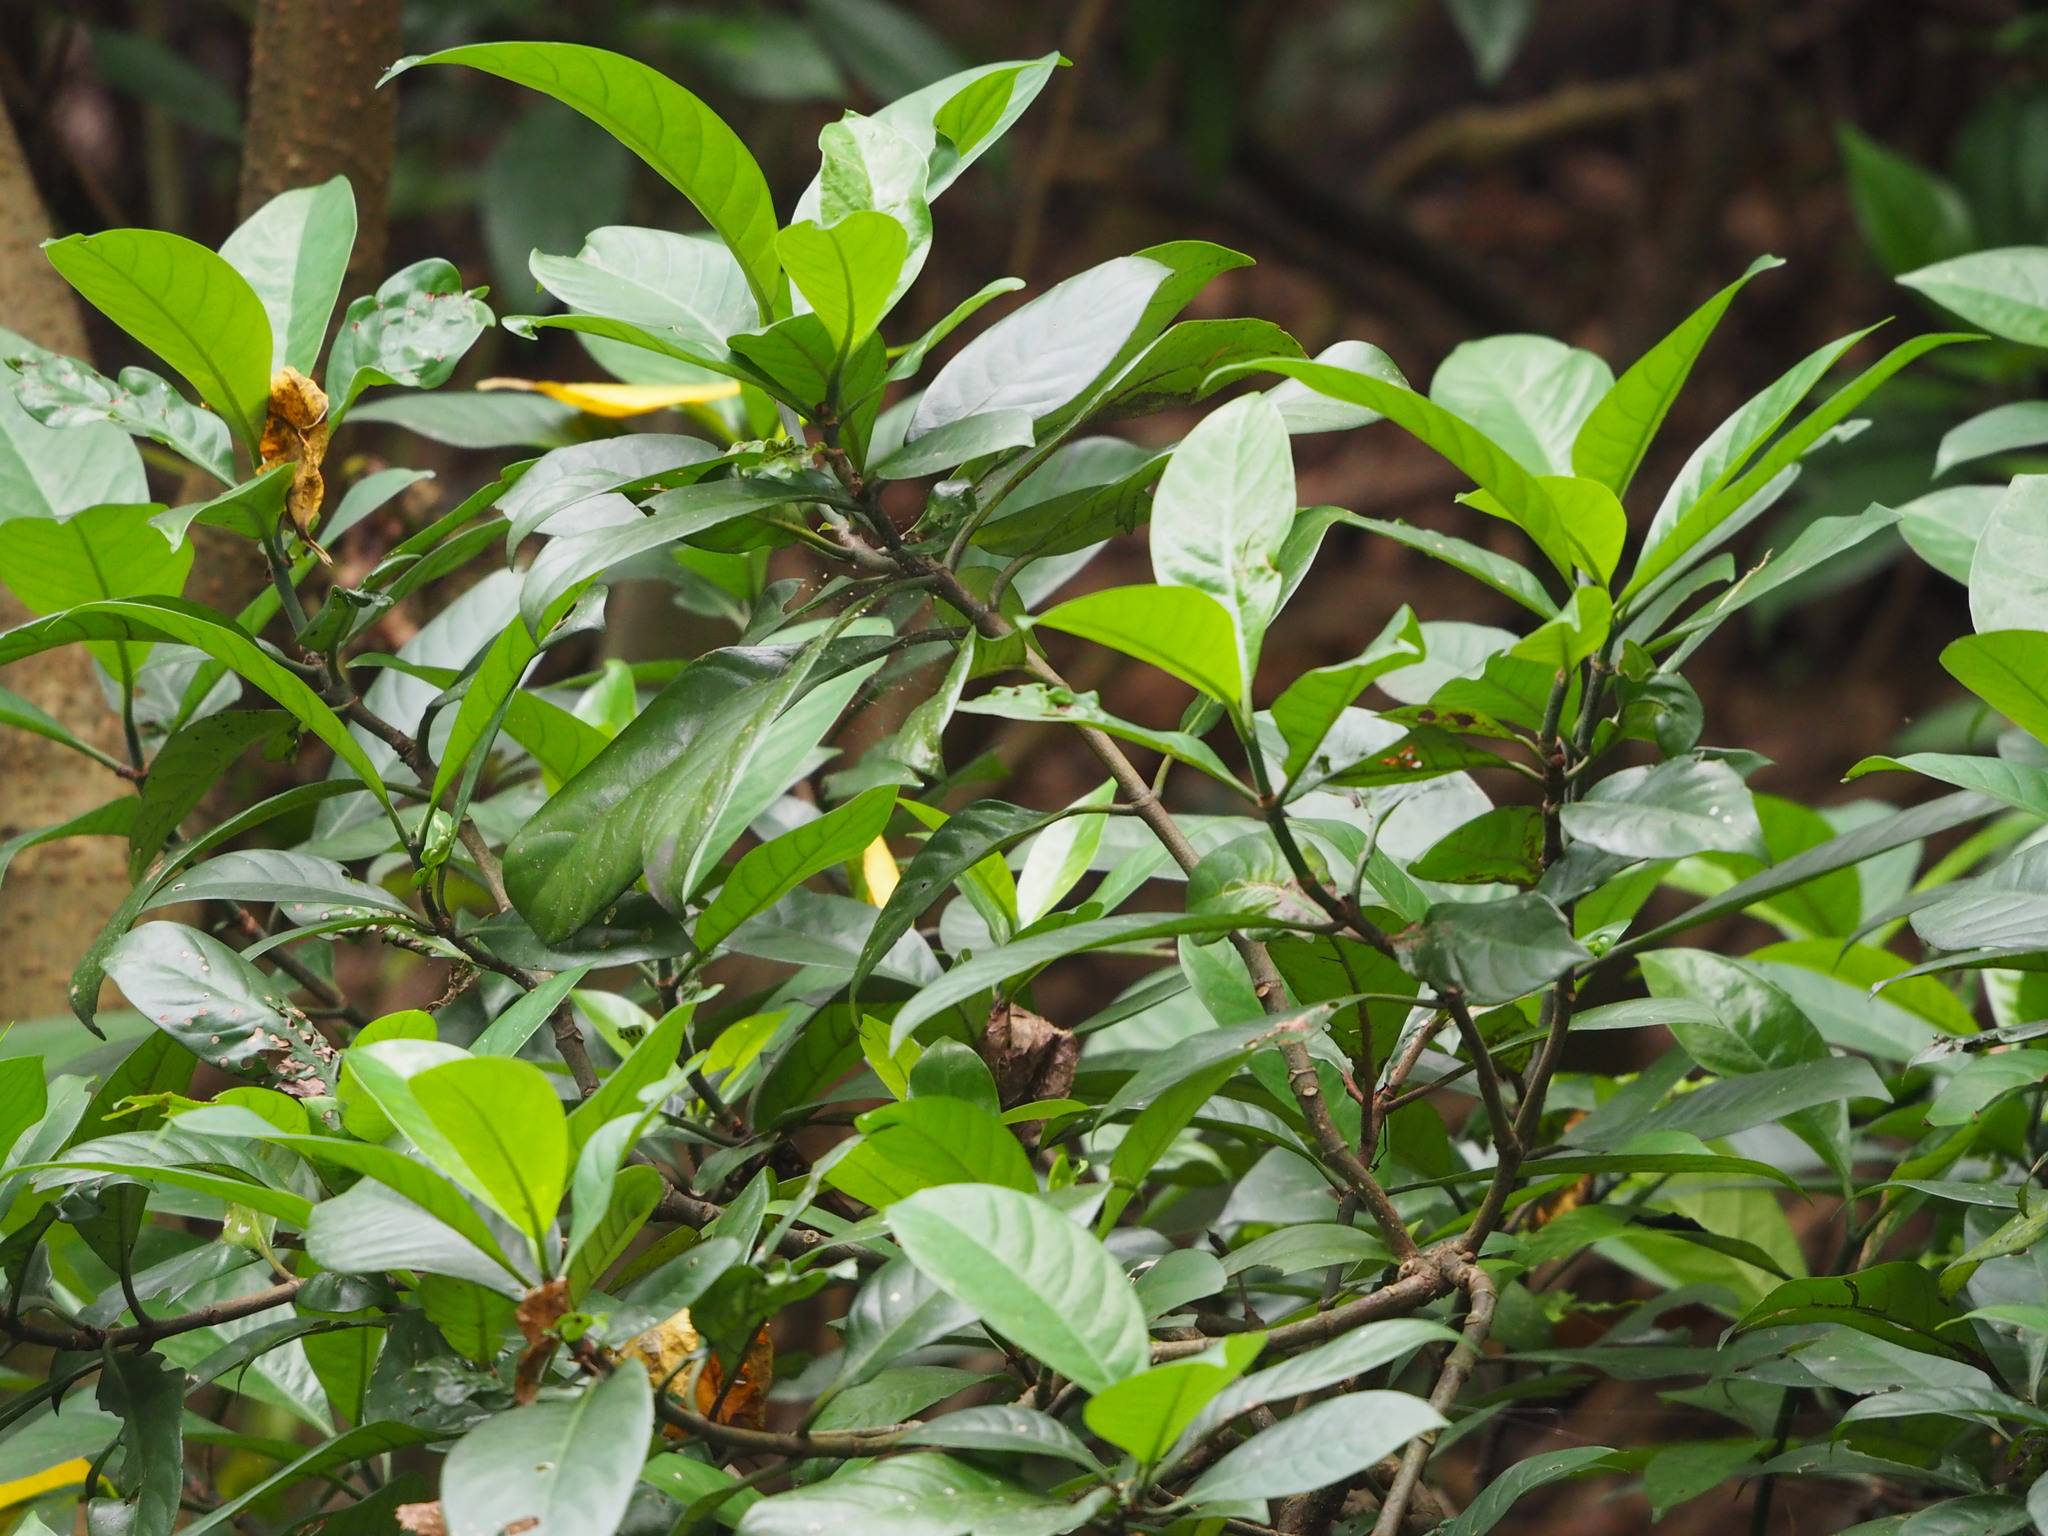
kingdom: Plantae
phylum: Tracheophyta
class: Magnoliopsida
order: Gentianales
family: Rubiaceae
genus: Psychotria
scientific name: Psychotria asiatica
